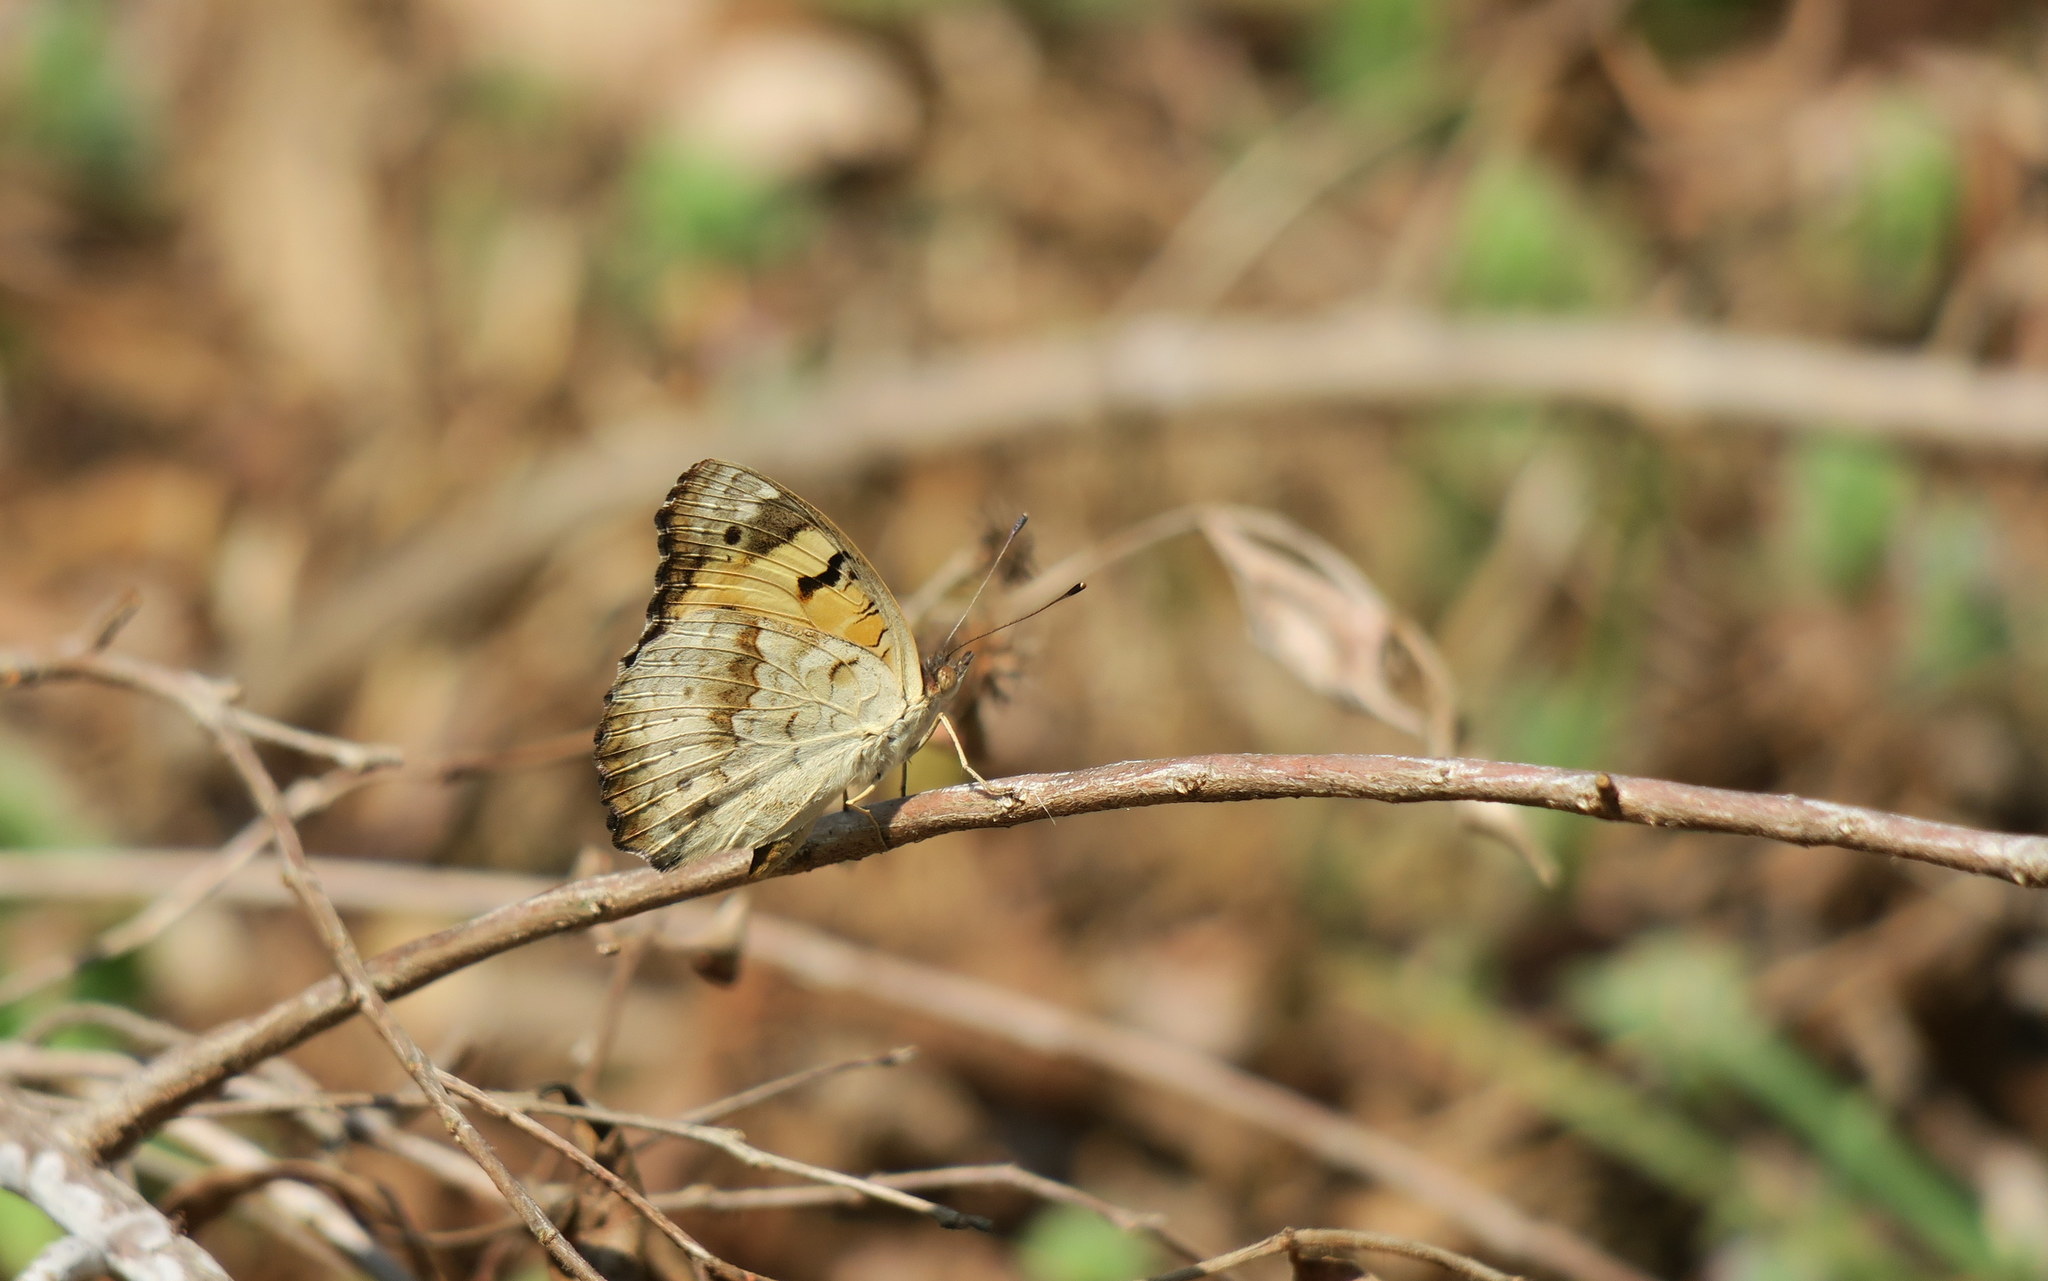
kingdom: Animalia
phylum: Arthropoda
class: Insecta
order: Lepidoptera
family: Nymphalidae
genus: Junonia
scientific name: Junonia hierta
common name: Yellow pansy
